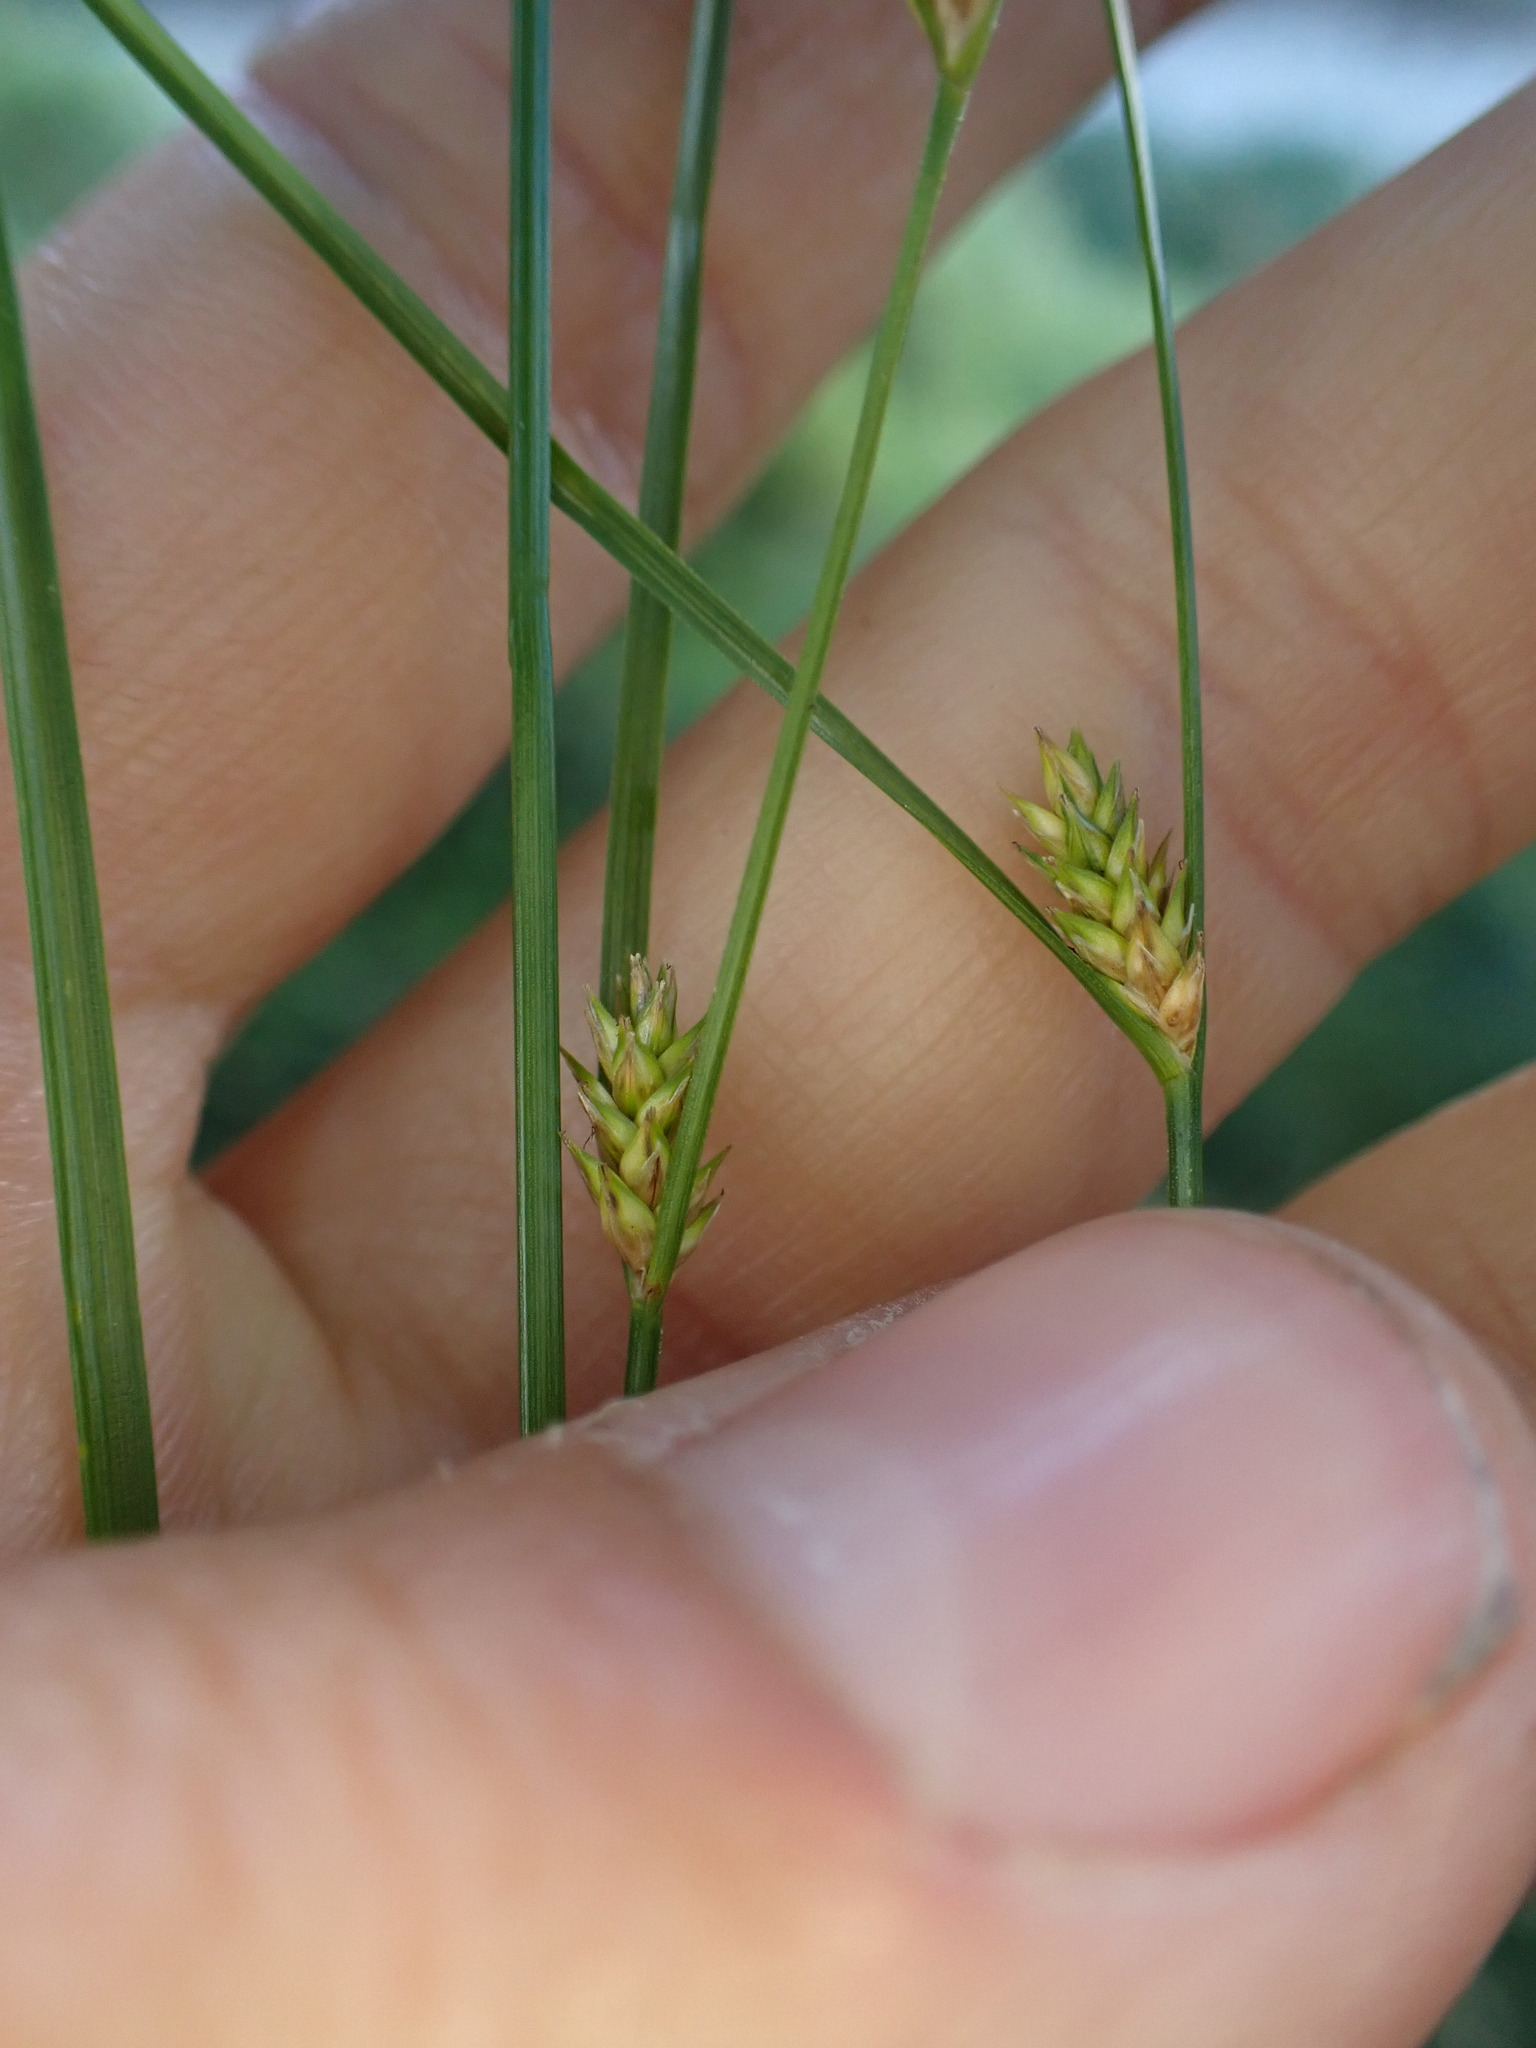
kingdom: Plantae
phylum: Tracheophyta
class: Liliopsida
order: Poales
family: Cyperaceae
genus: Carex
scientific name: Carex remota
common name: Remote sedge
